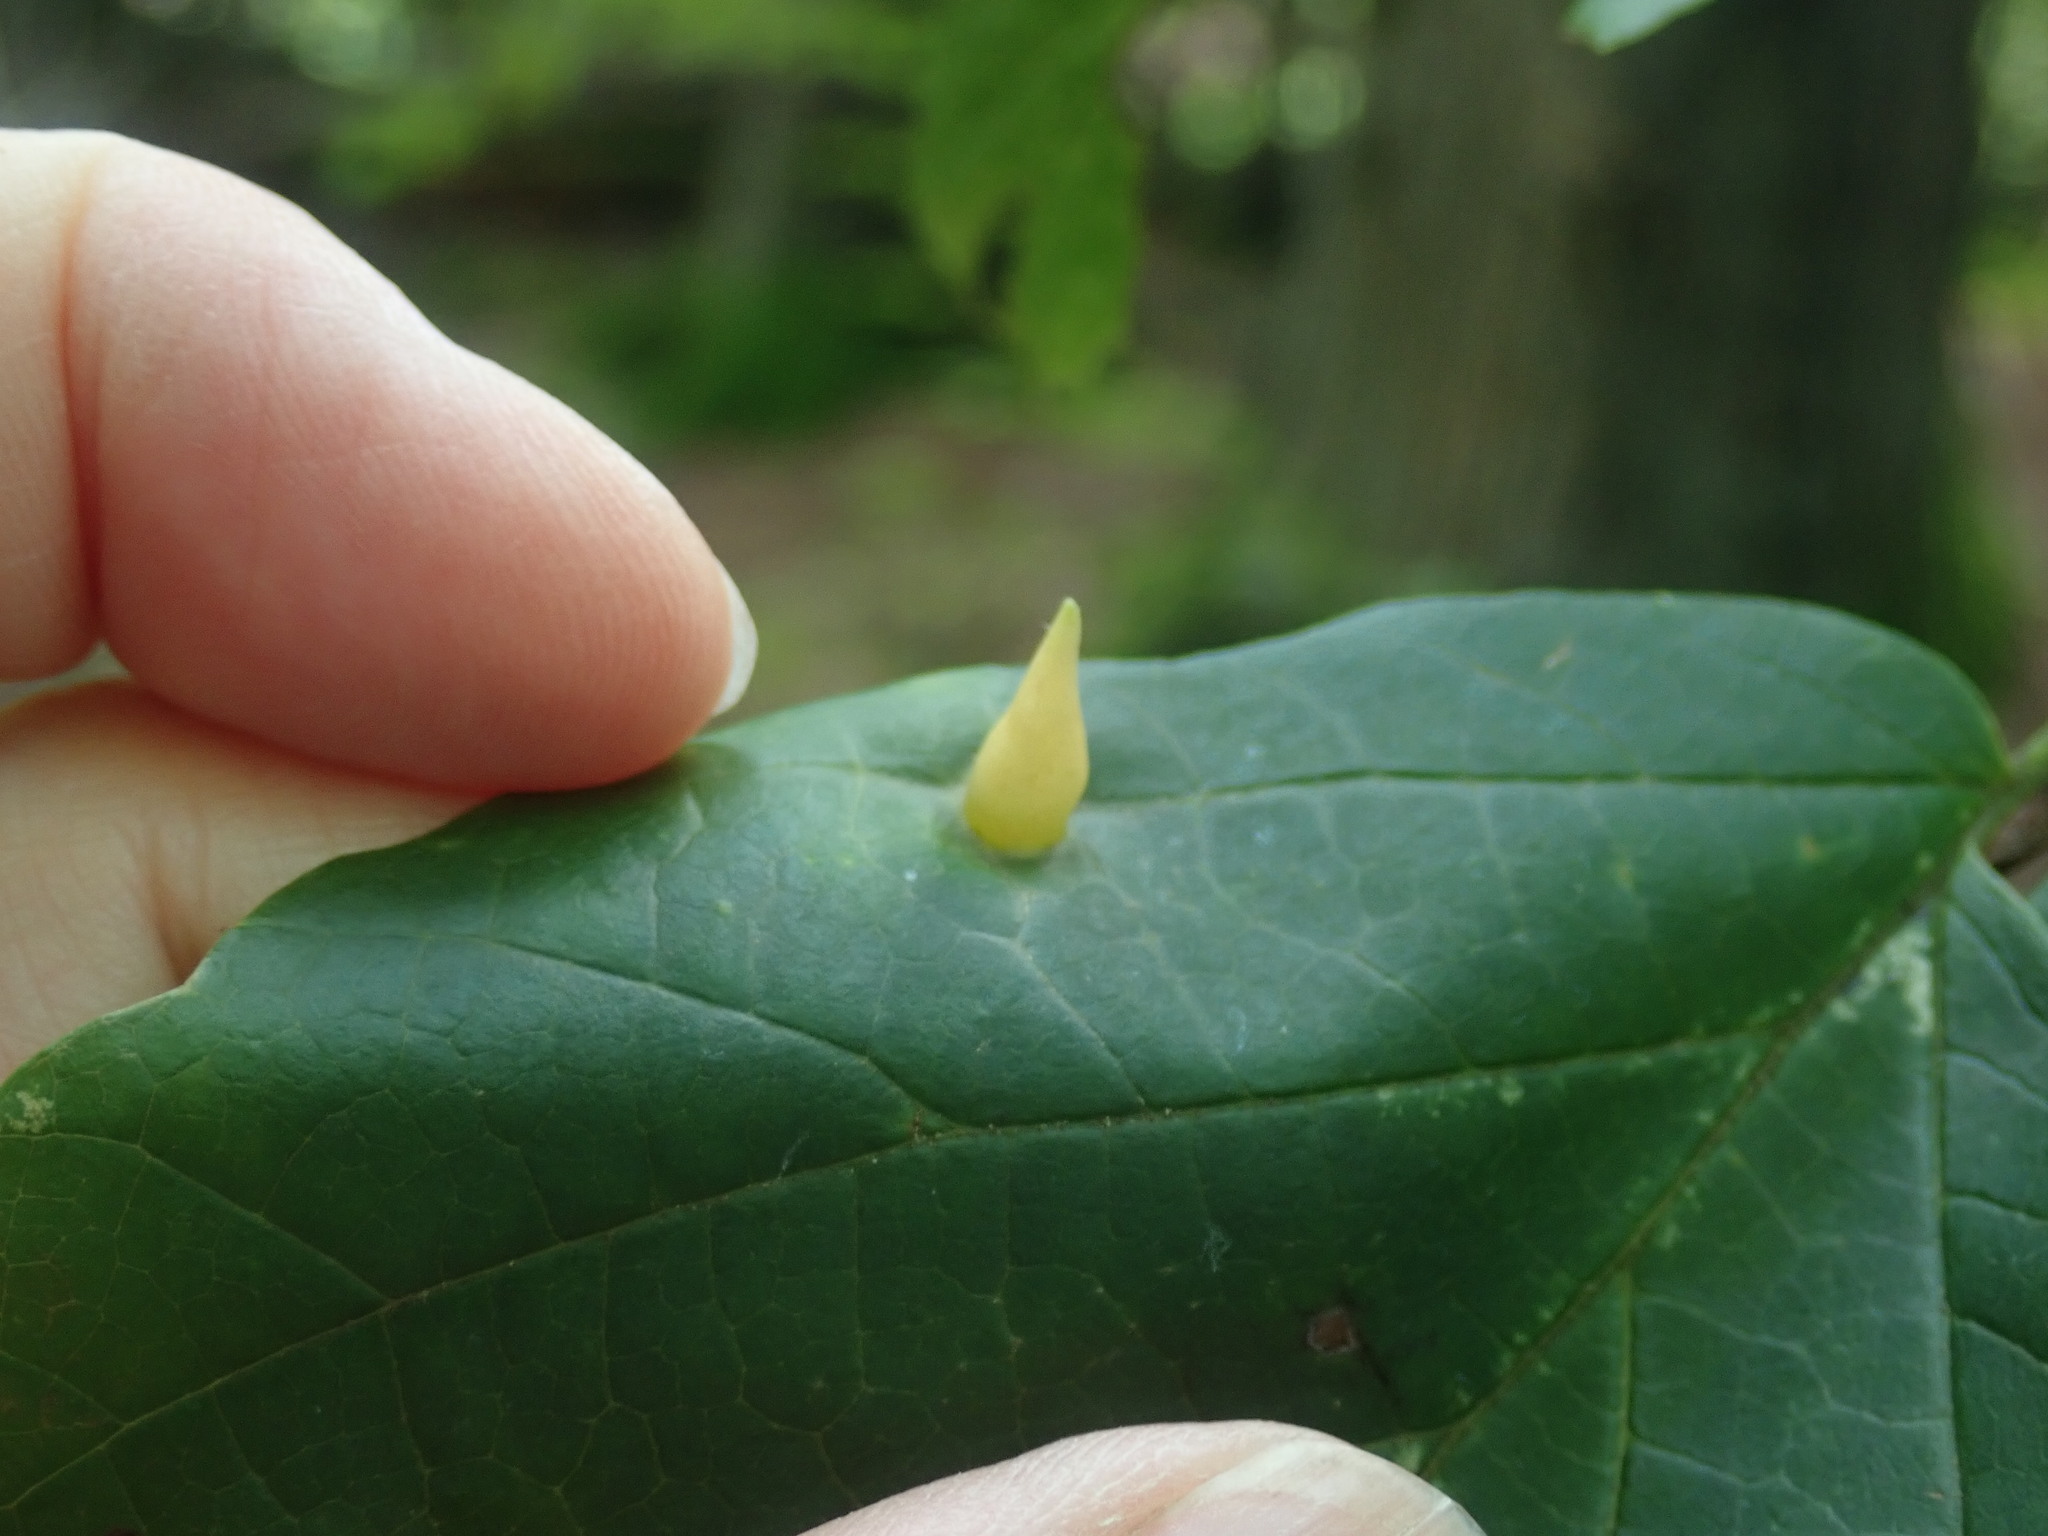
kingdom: Animalia
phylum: Arthropoda
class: Insecta
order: Hemiptera
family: Aphididae
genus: Hormaphis
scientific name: Hormaphis hamamelidis
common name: Witch-hazel cone gall aphid
